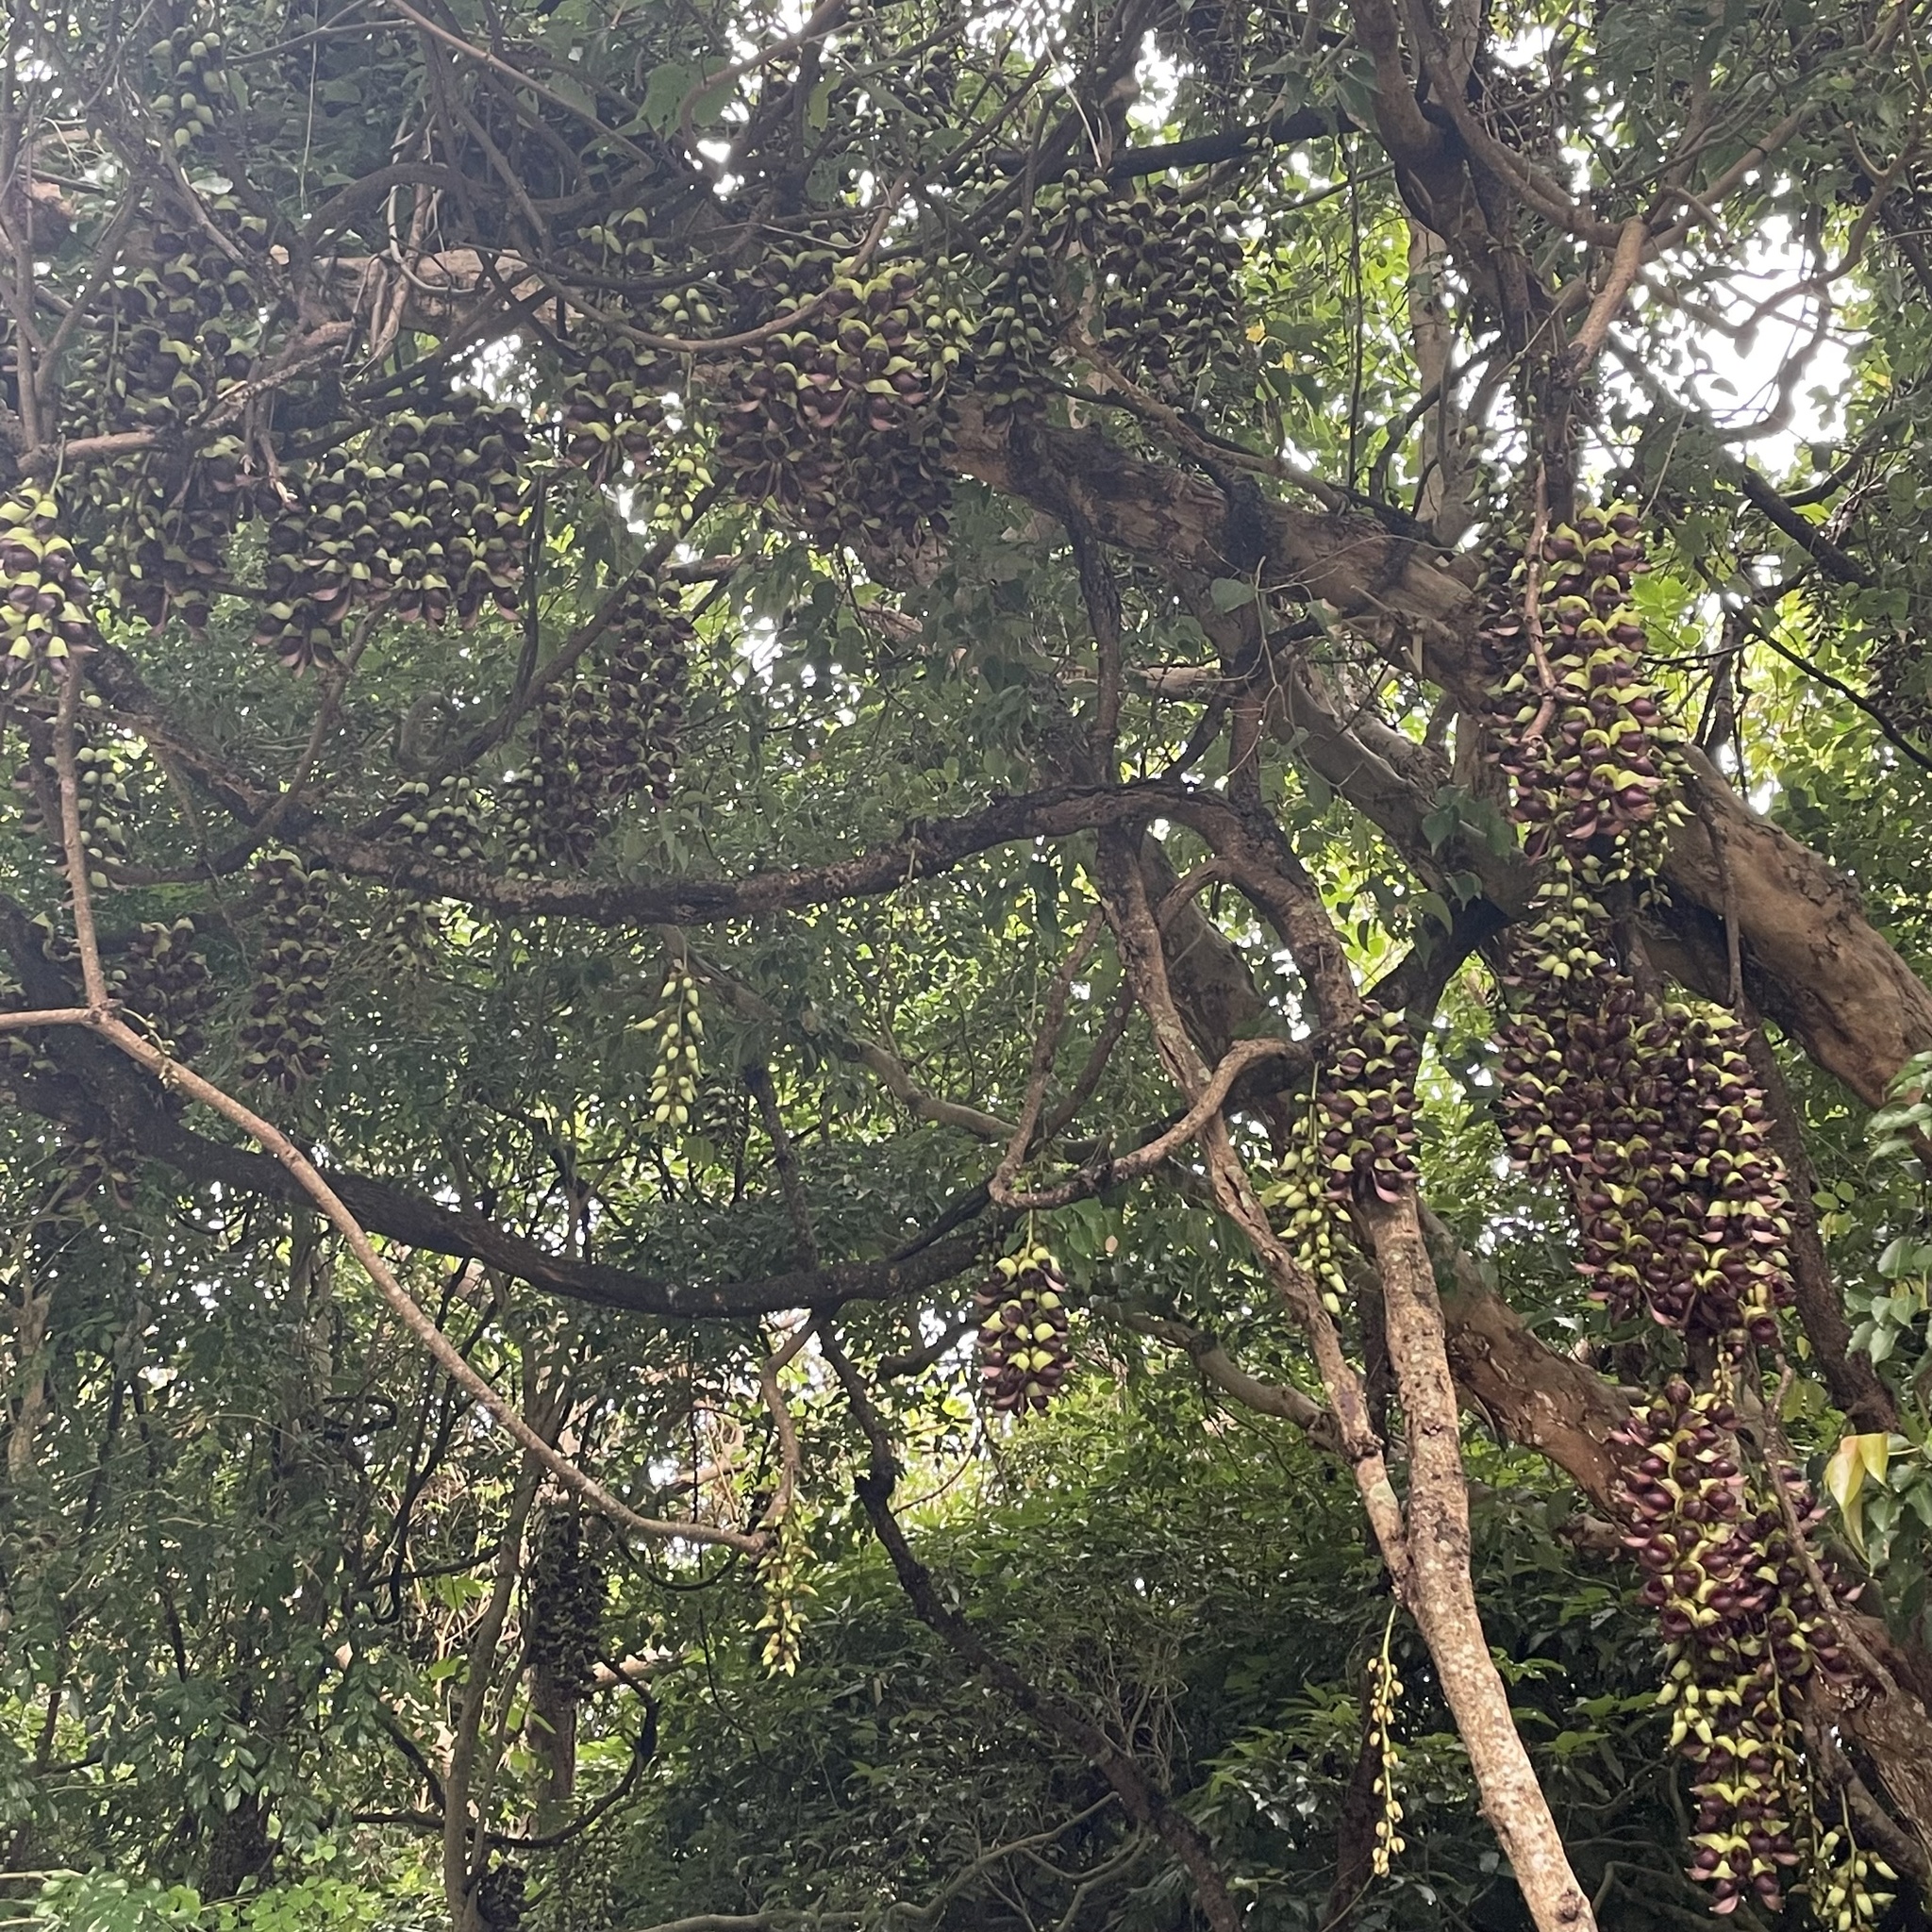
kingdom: Plantae
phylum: Tracheophyta
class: Magnoliopsida
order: Fabales
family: Fabaceae
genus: Mucuna
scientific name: Mucuna macrocarpa
